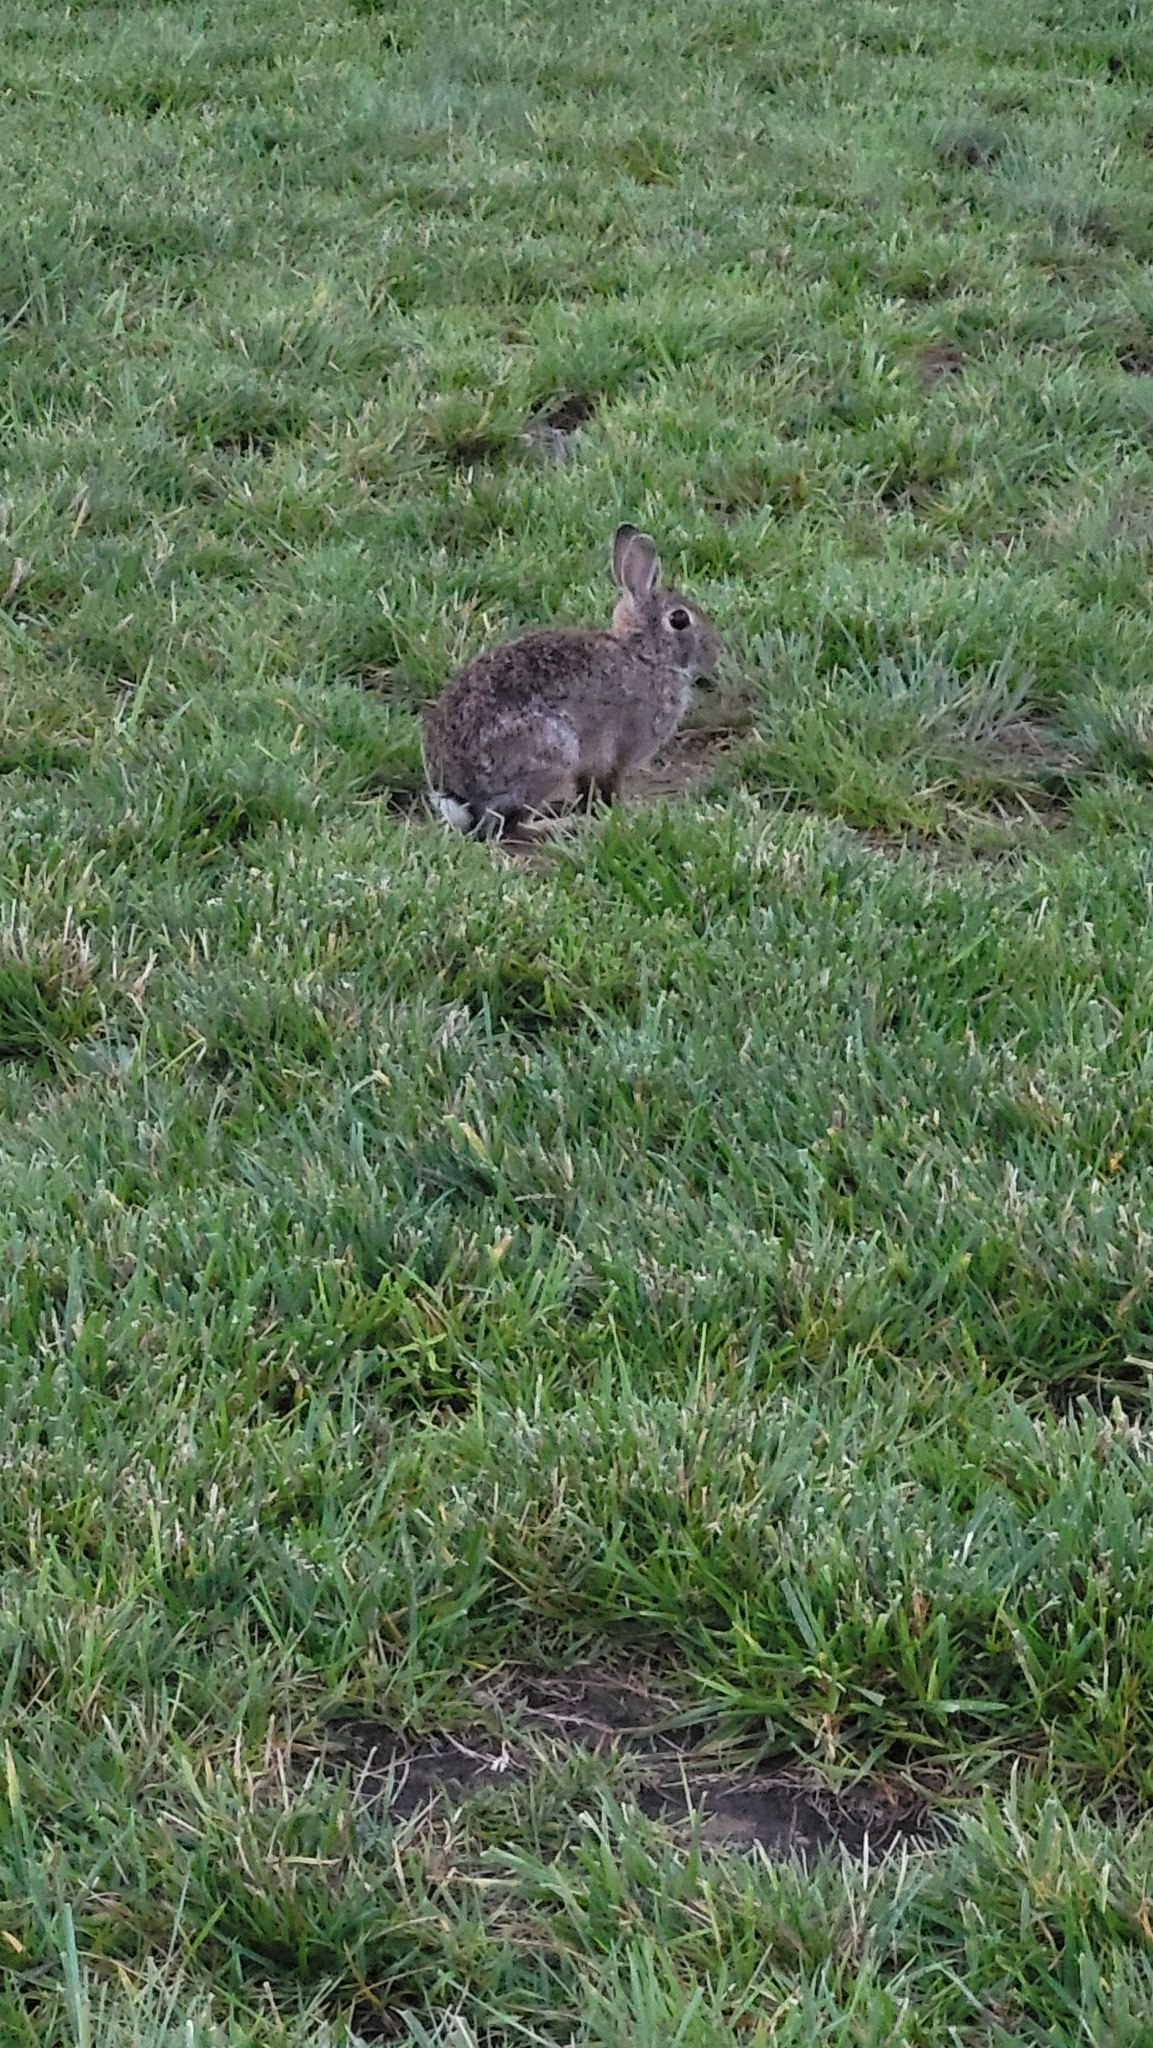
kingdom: Animalia
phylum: Chordata
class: Mammalia
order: Lagomorpha
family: Leporidae
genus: Sylvilagus
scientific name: Sylvilagus floridanus
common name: Eastern cottontail
